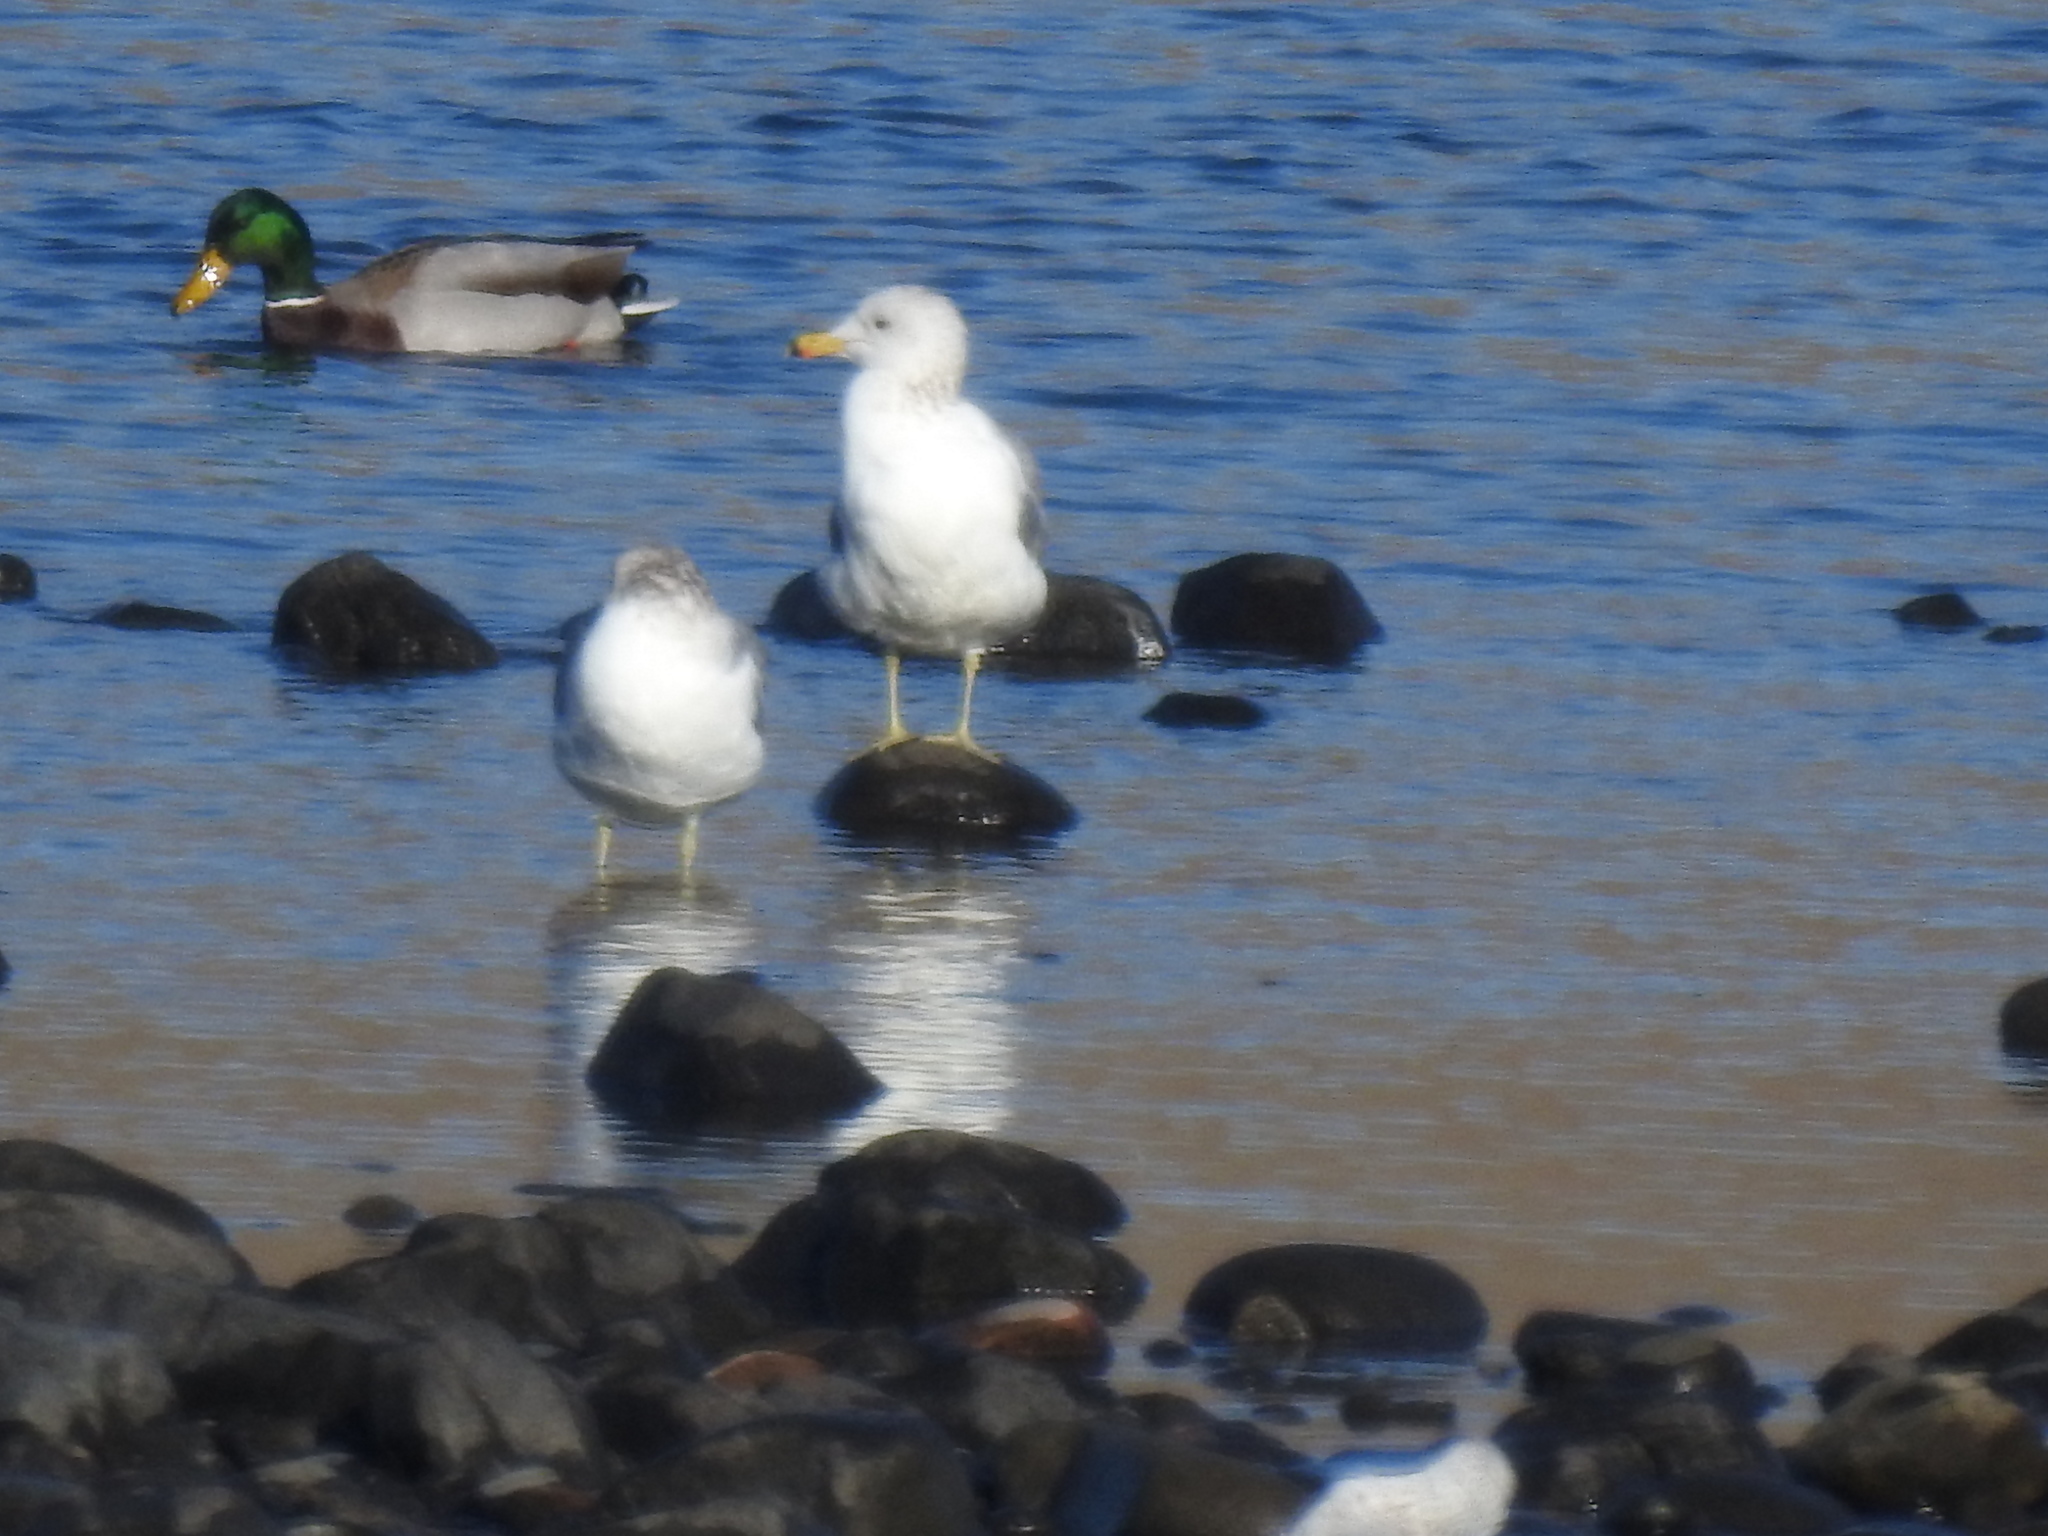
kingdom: Animalia
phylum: Chordata
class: Aves
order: Charadriiformes
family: Laridae
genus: Larus
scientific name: Larus californicus
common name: California gull
